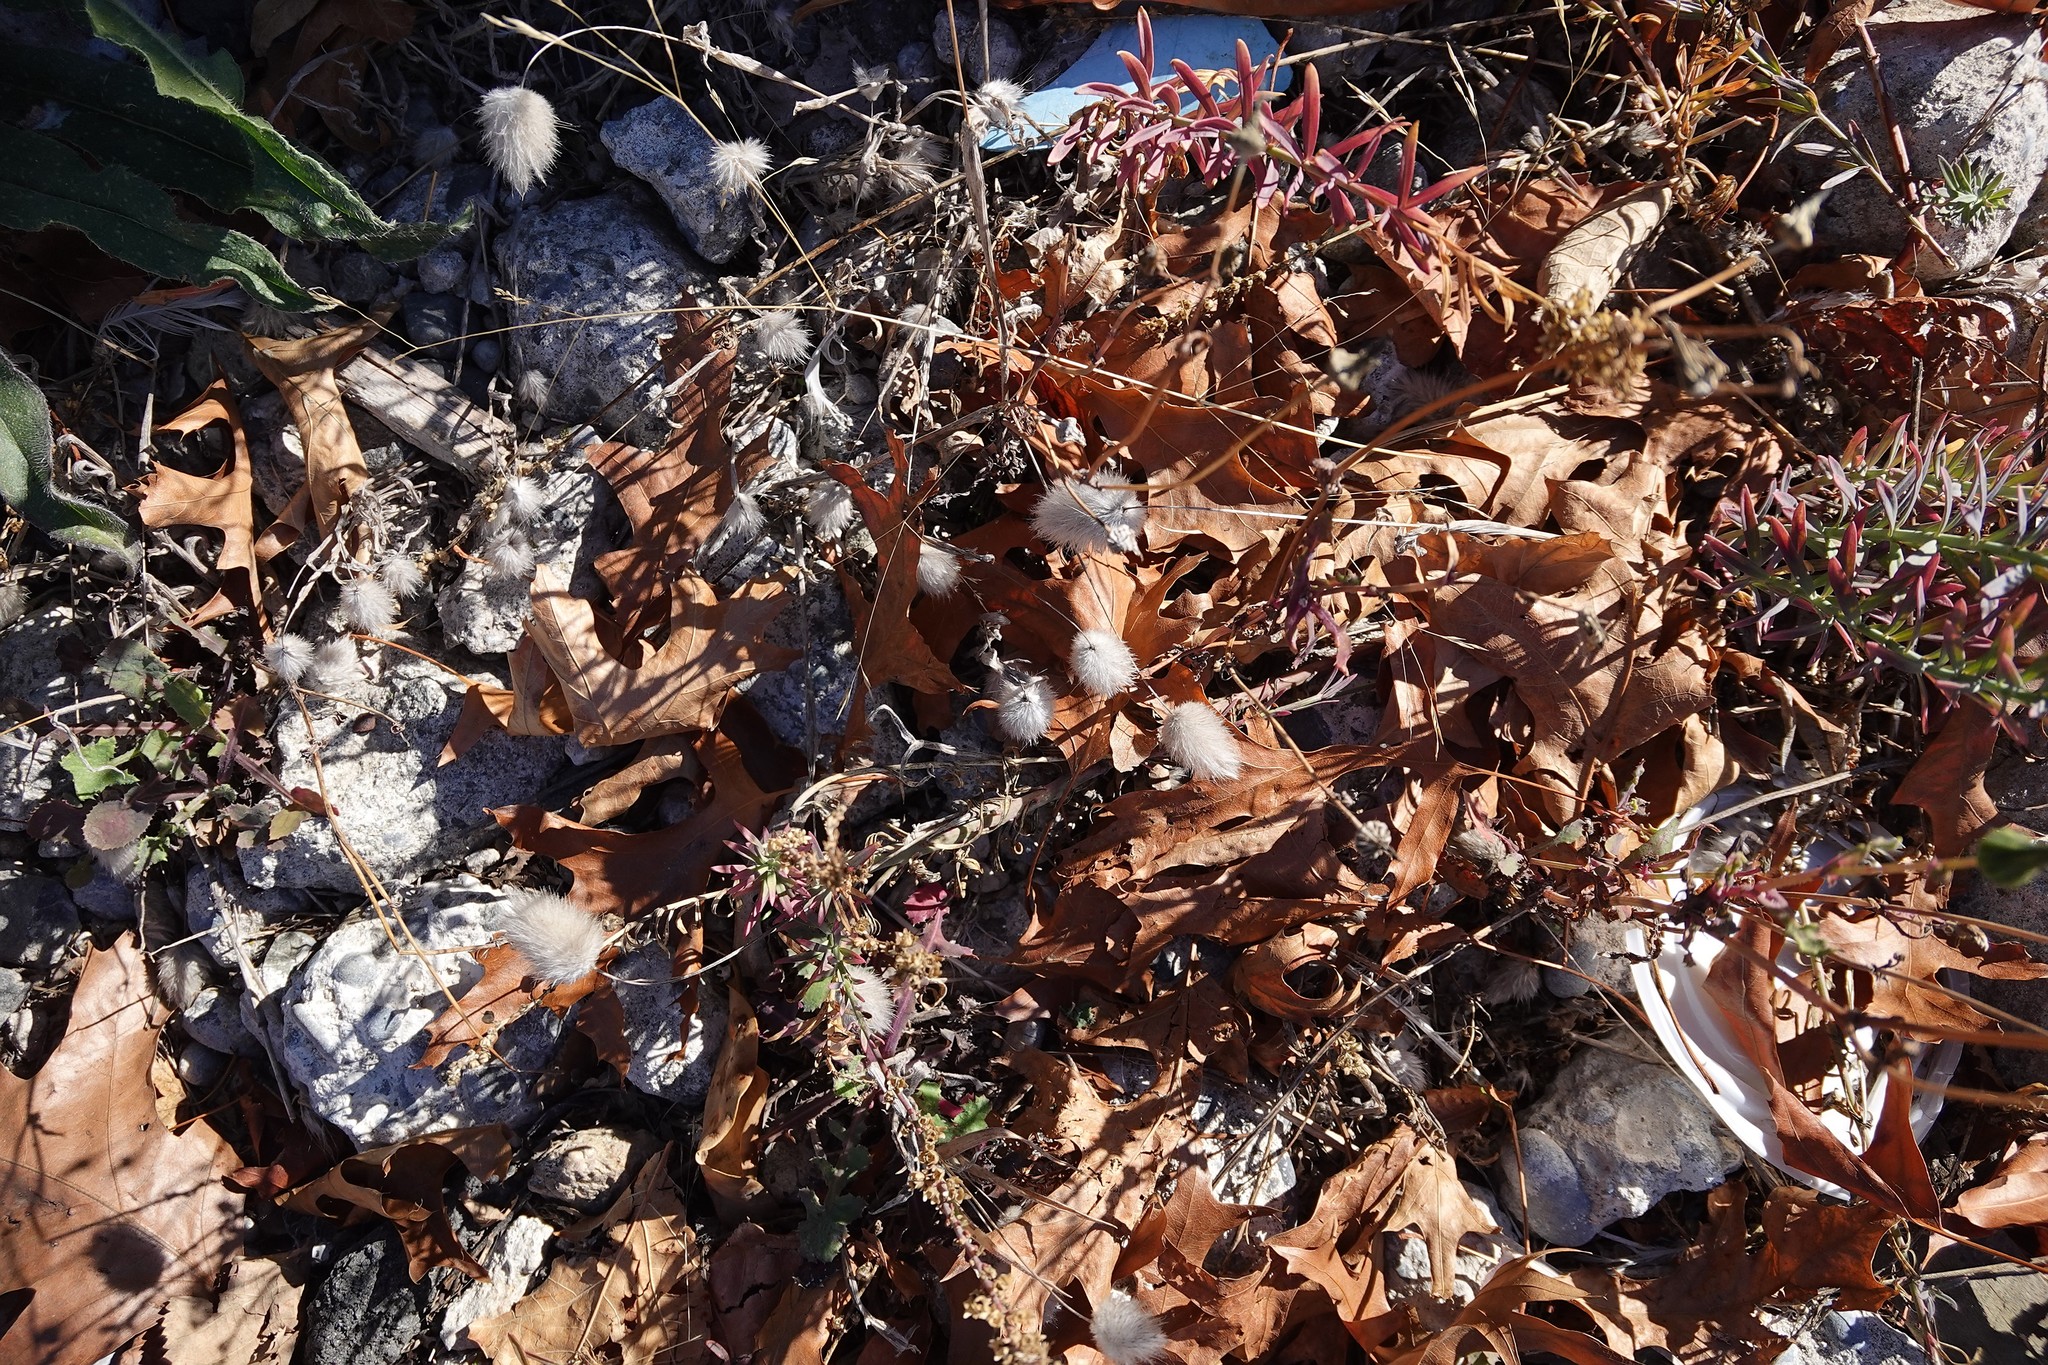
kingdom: Plantae
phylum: Tracheophyta
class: Liliopsida
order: Poales
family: Poaceae
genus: Lagurus
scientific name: Lagurus ovatus
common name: Hare's-tail
